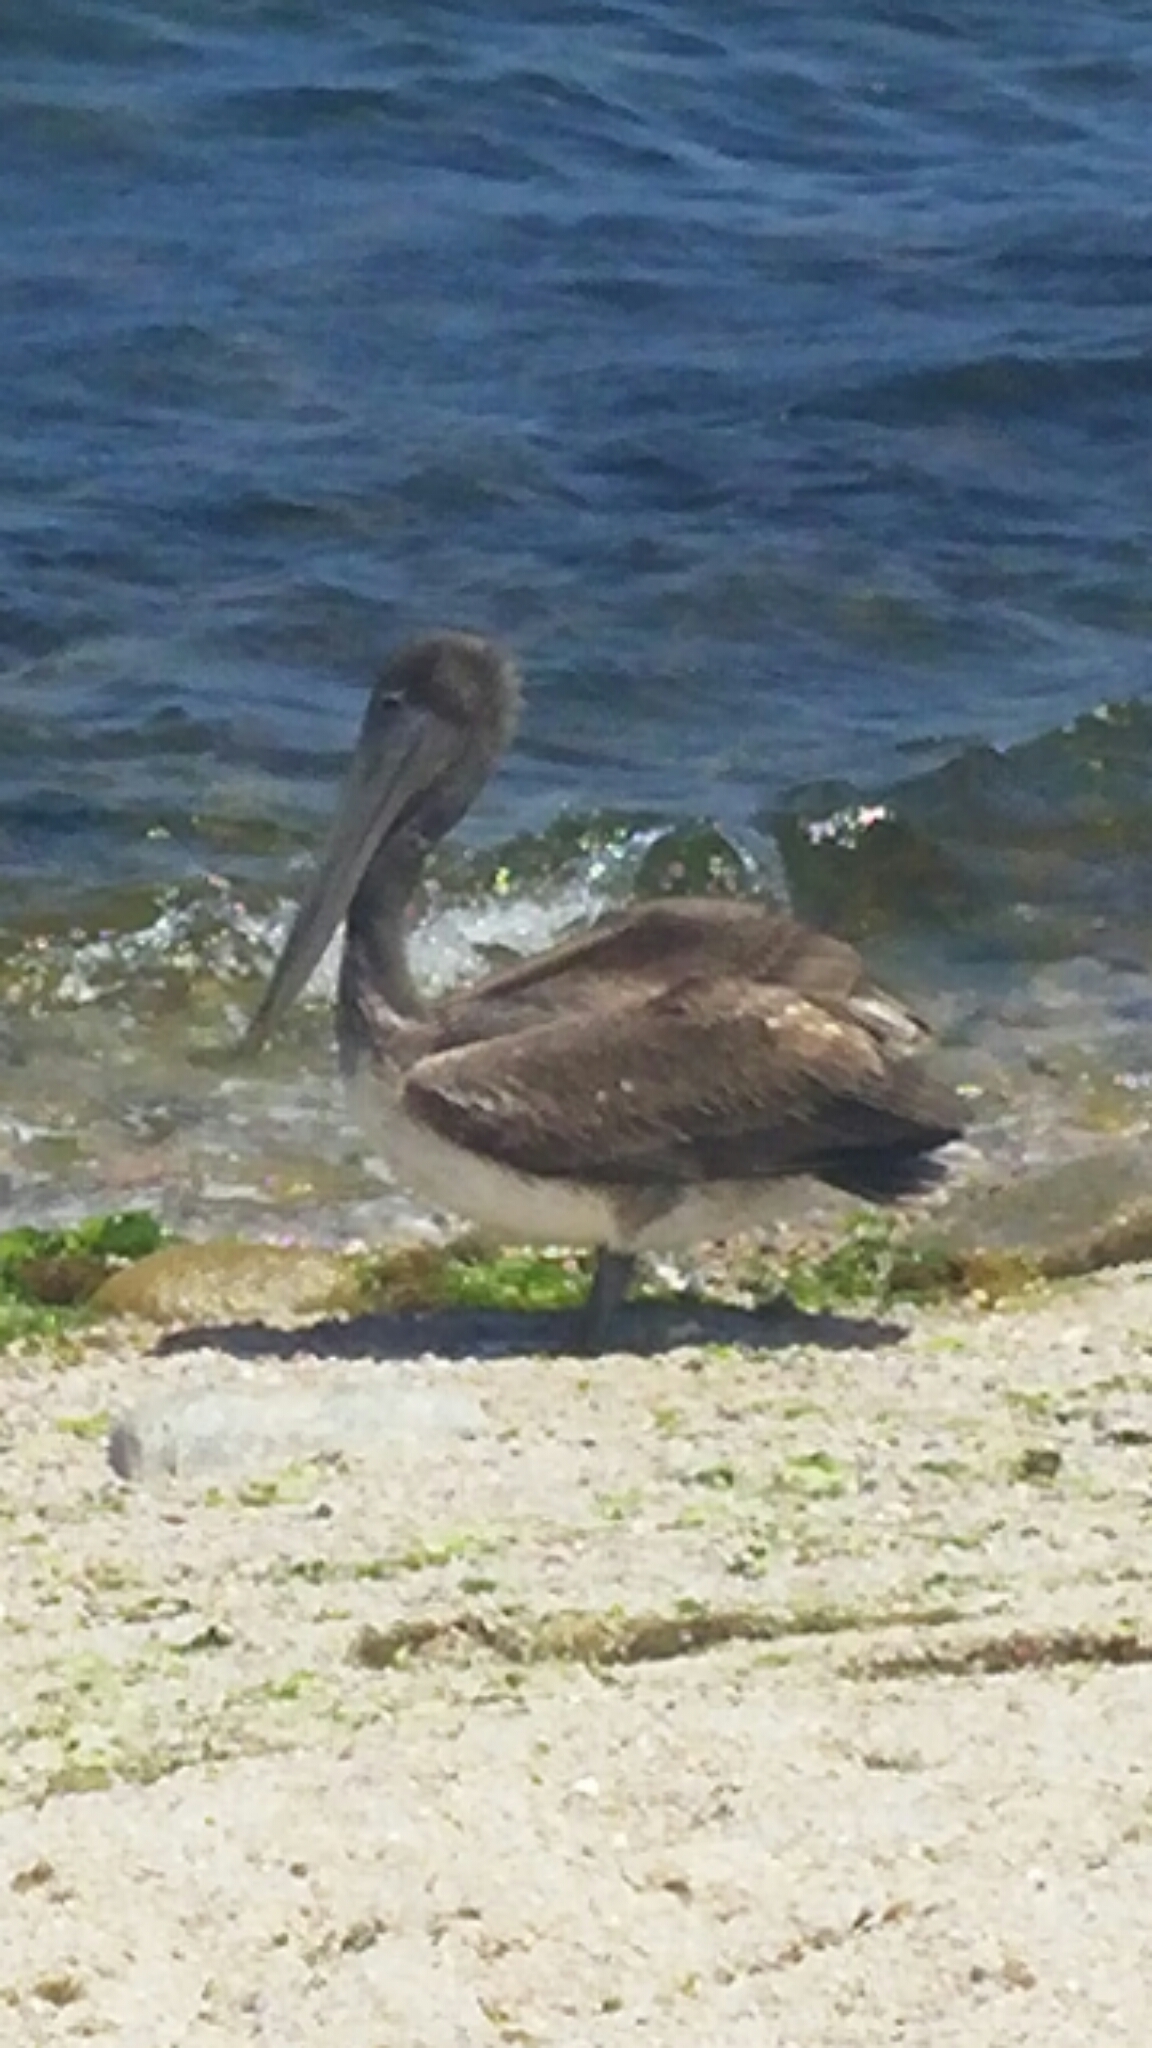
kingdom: Animalia
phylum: Chordata
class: Aves
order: Pelecaniformes
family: Pelecanidae
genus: Pelecanus
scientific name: Pelecanus occidentalis
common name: Brown pelican
